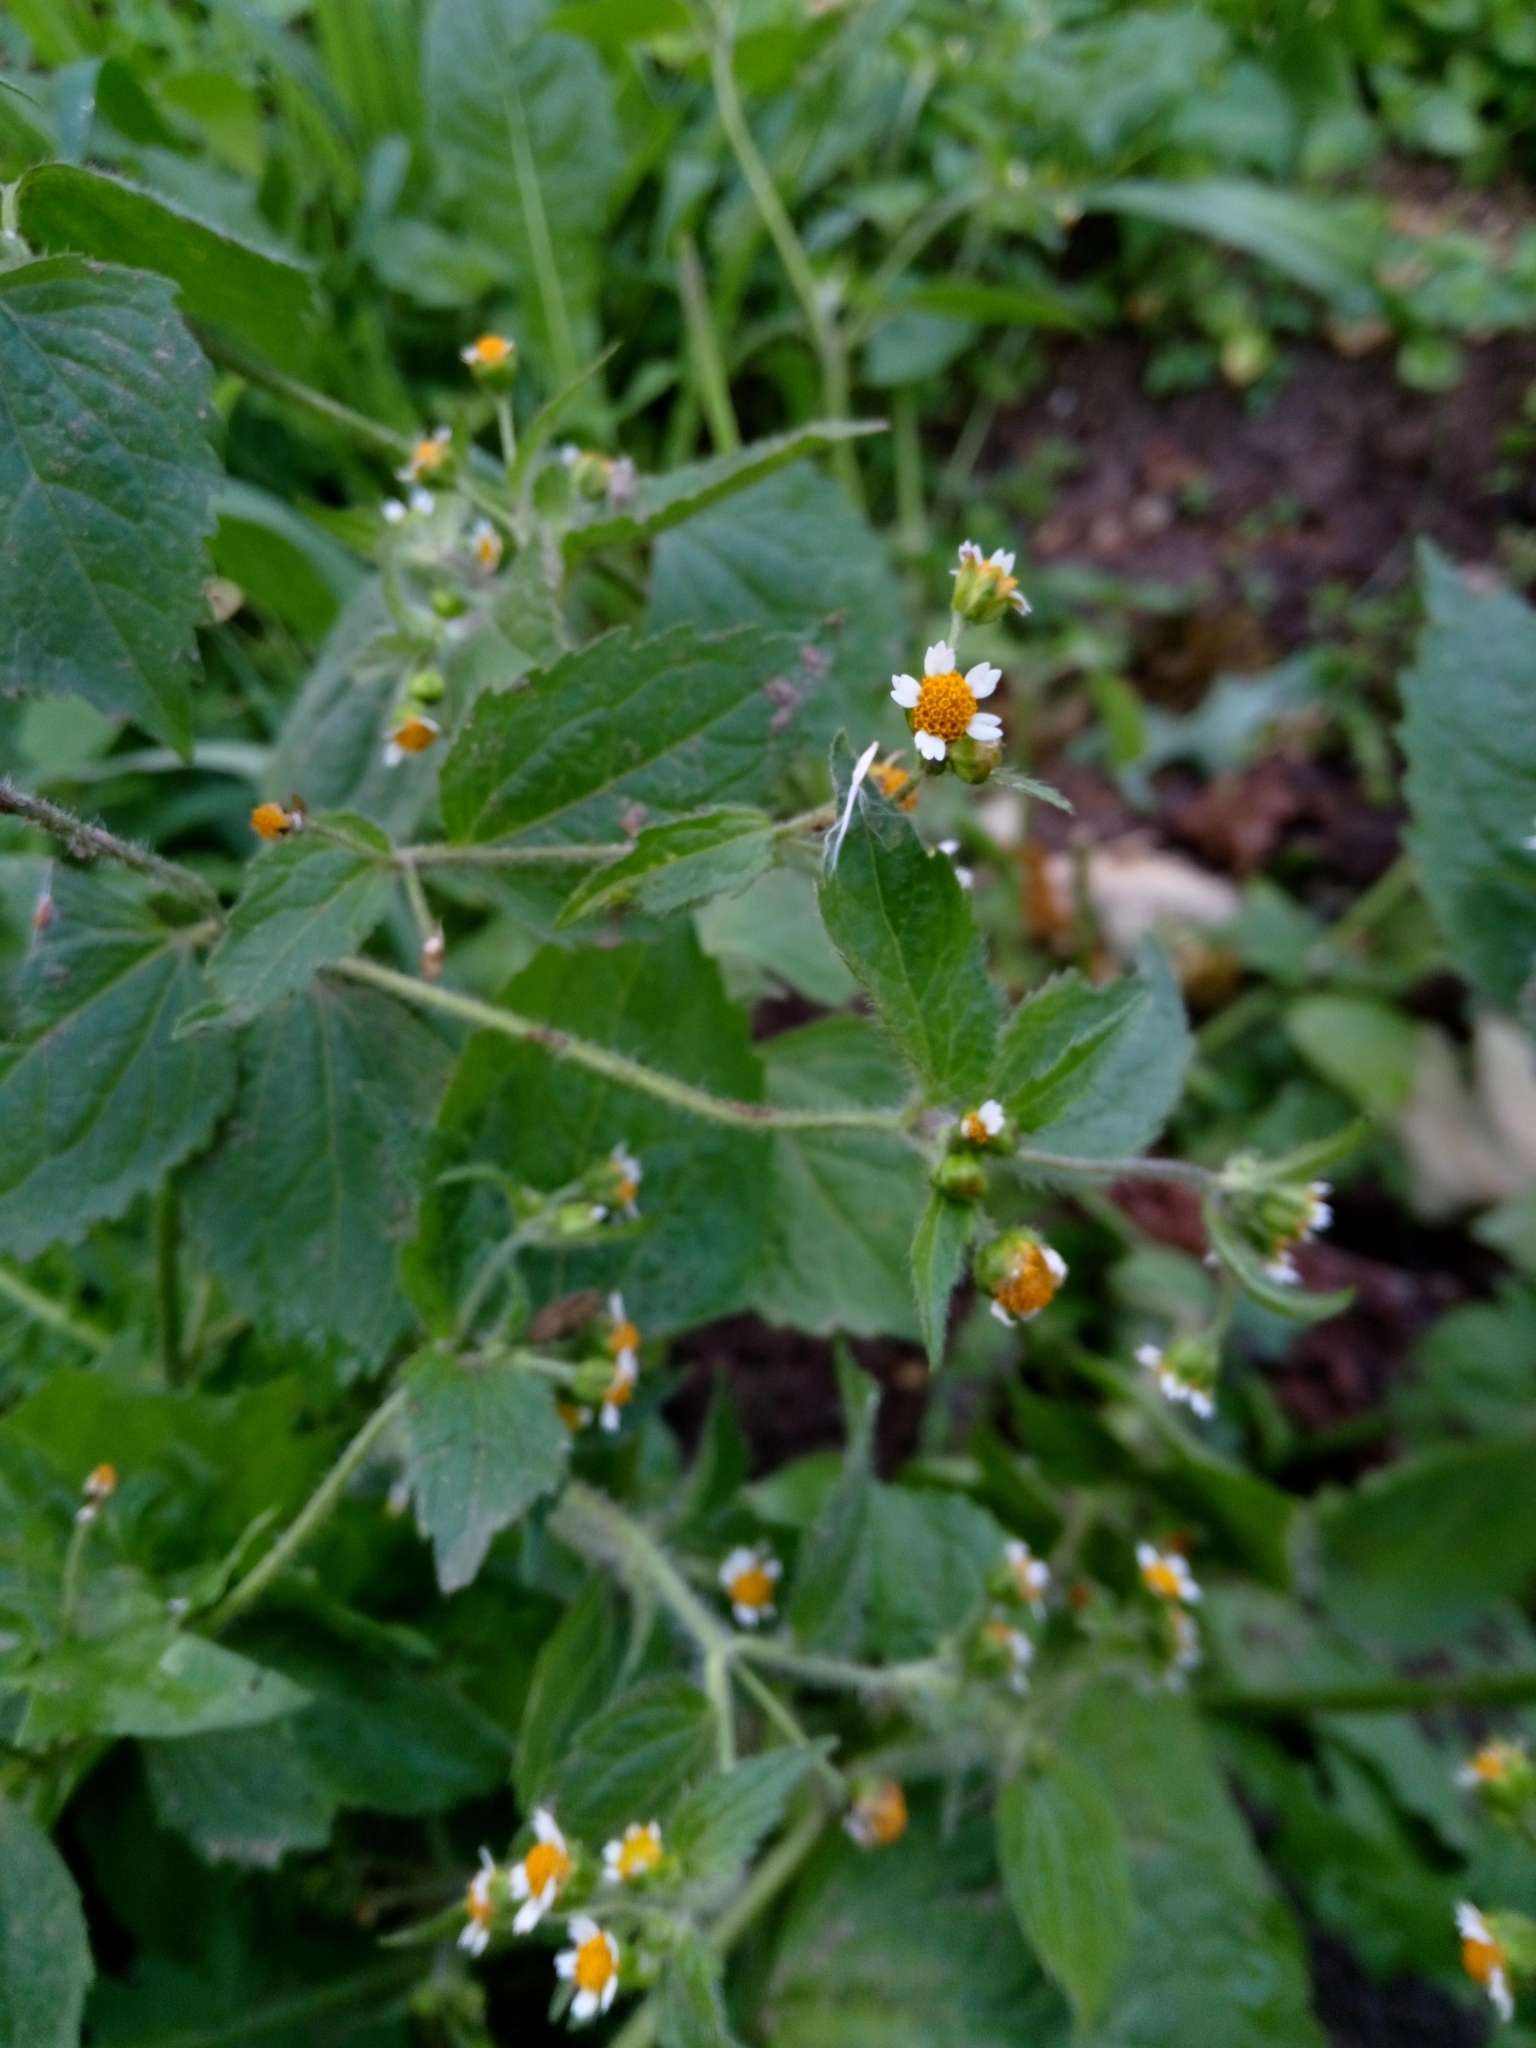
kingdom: Plantae
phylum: Tracheophyta
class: Magnoliopsida
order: Asterales
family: Asteraceae
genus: Galinsoga
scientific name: Galinsoga quadriradiata
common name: Shaggy soldier
